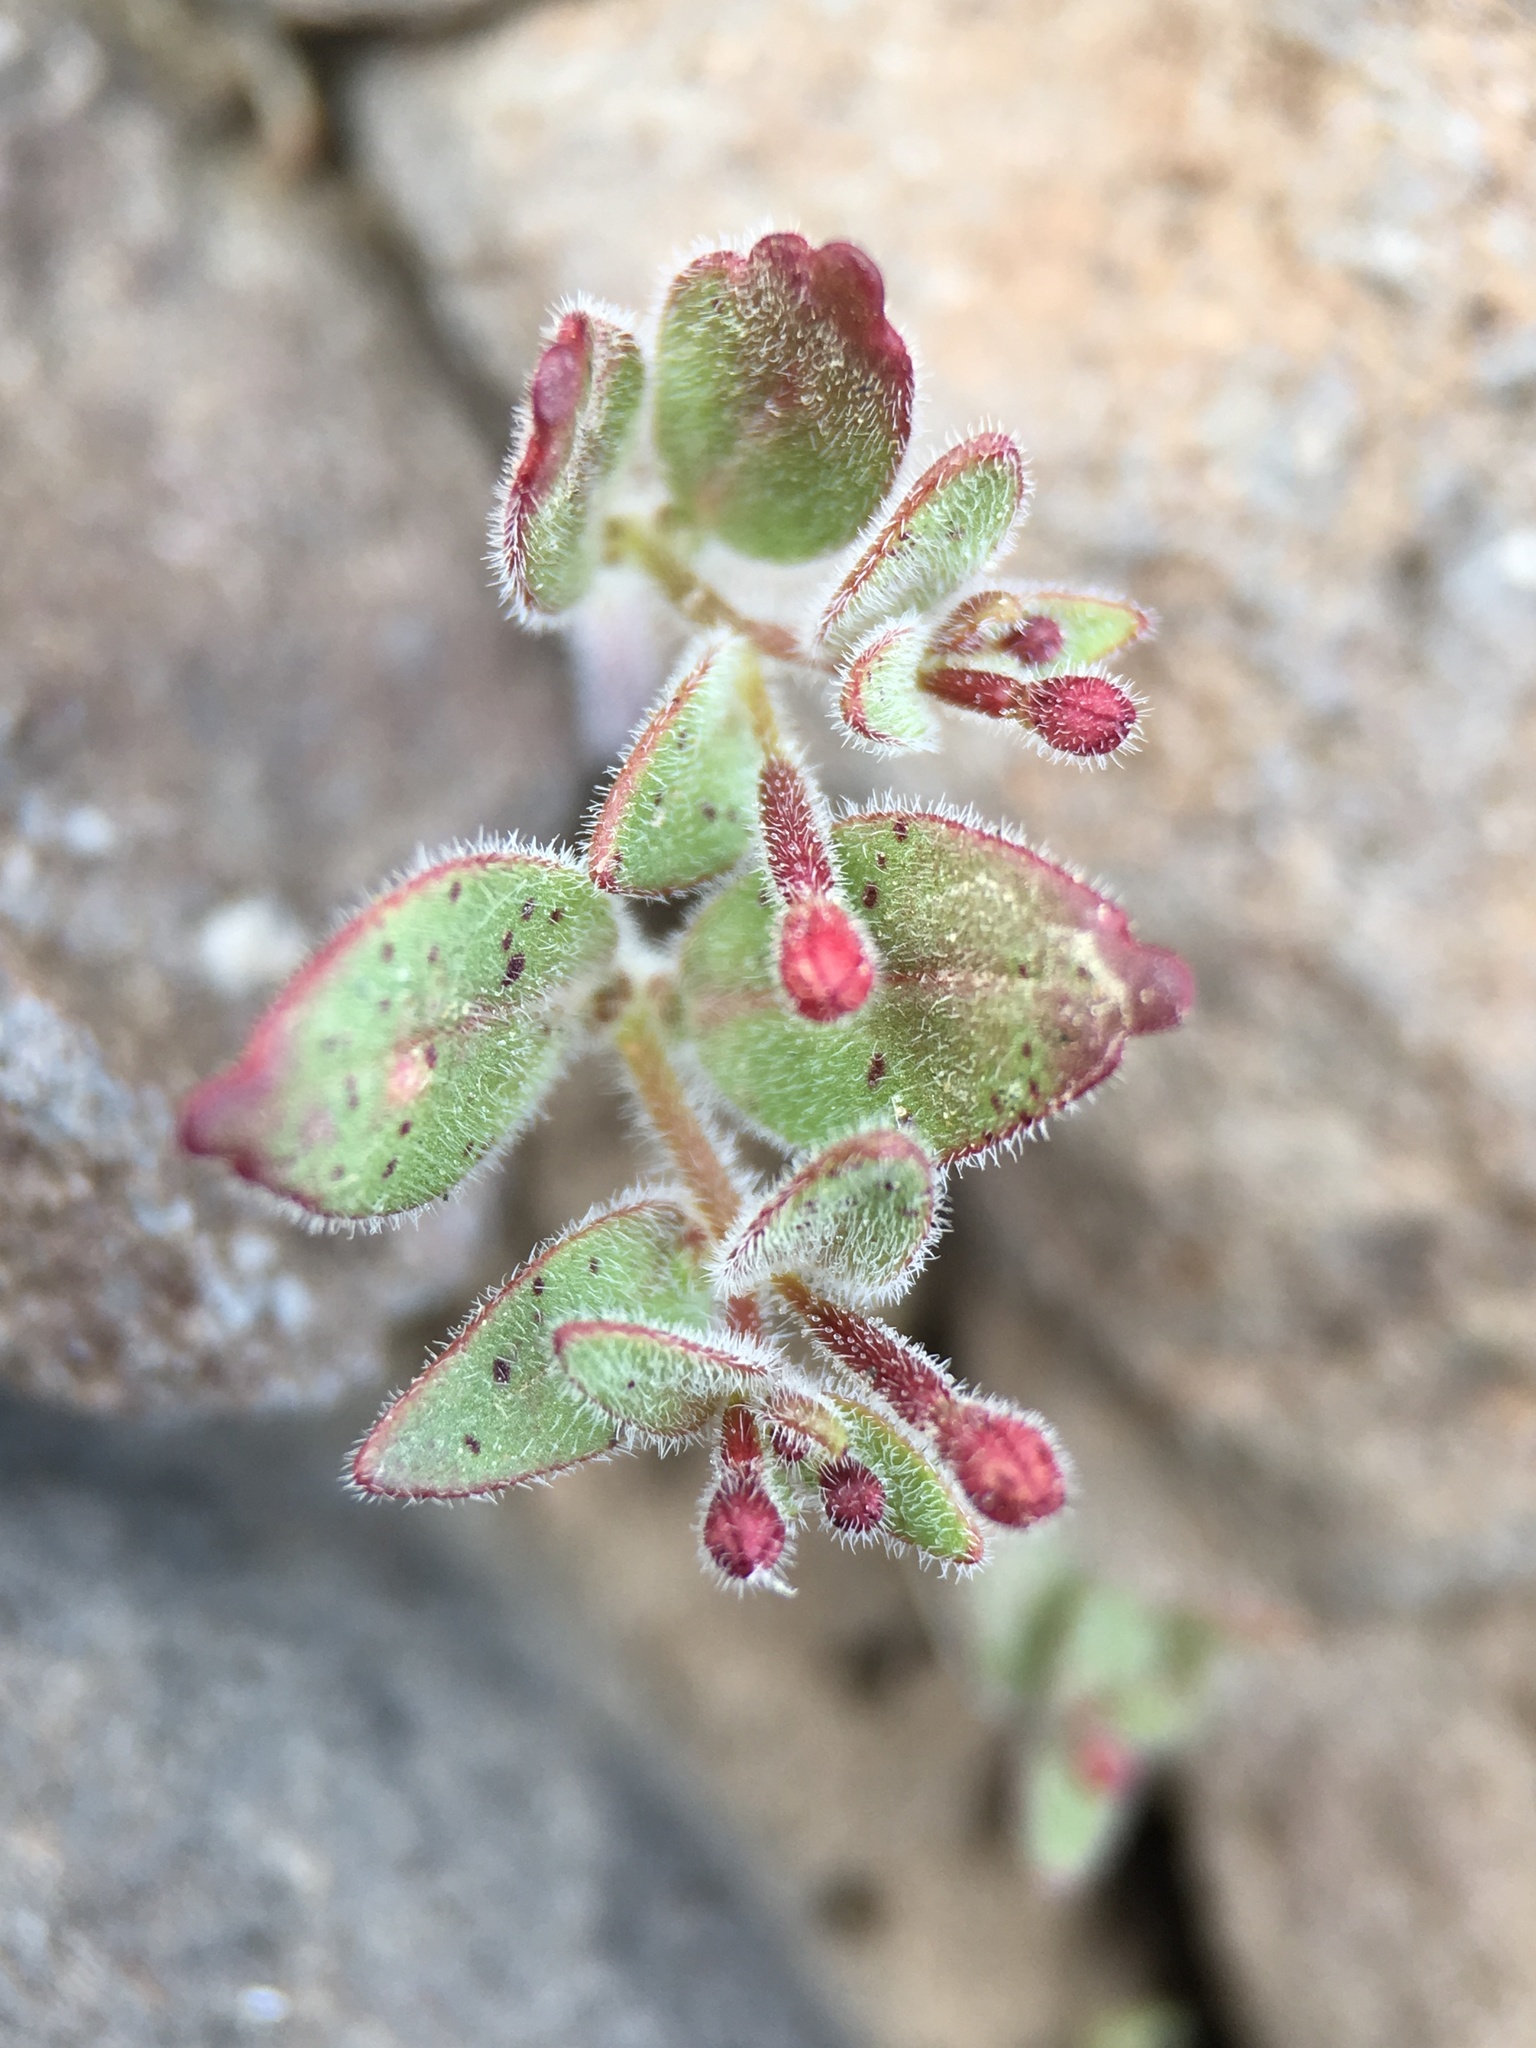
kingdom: Plantae
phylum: Tracheophyta
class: Magnoliopsida
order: Myrtales
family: Onagraceae
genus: Chylismiella
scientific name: Chylismiella pterosperma
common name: Wingfruit suncup
